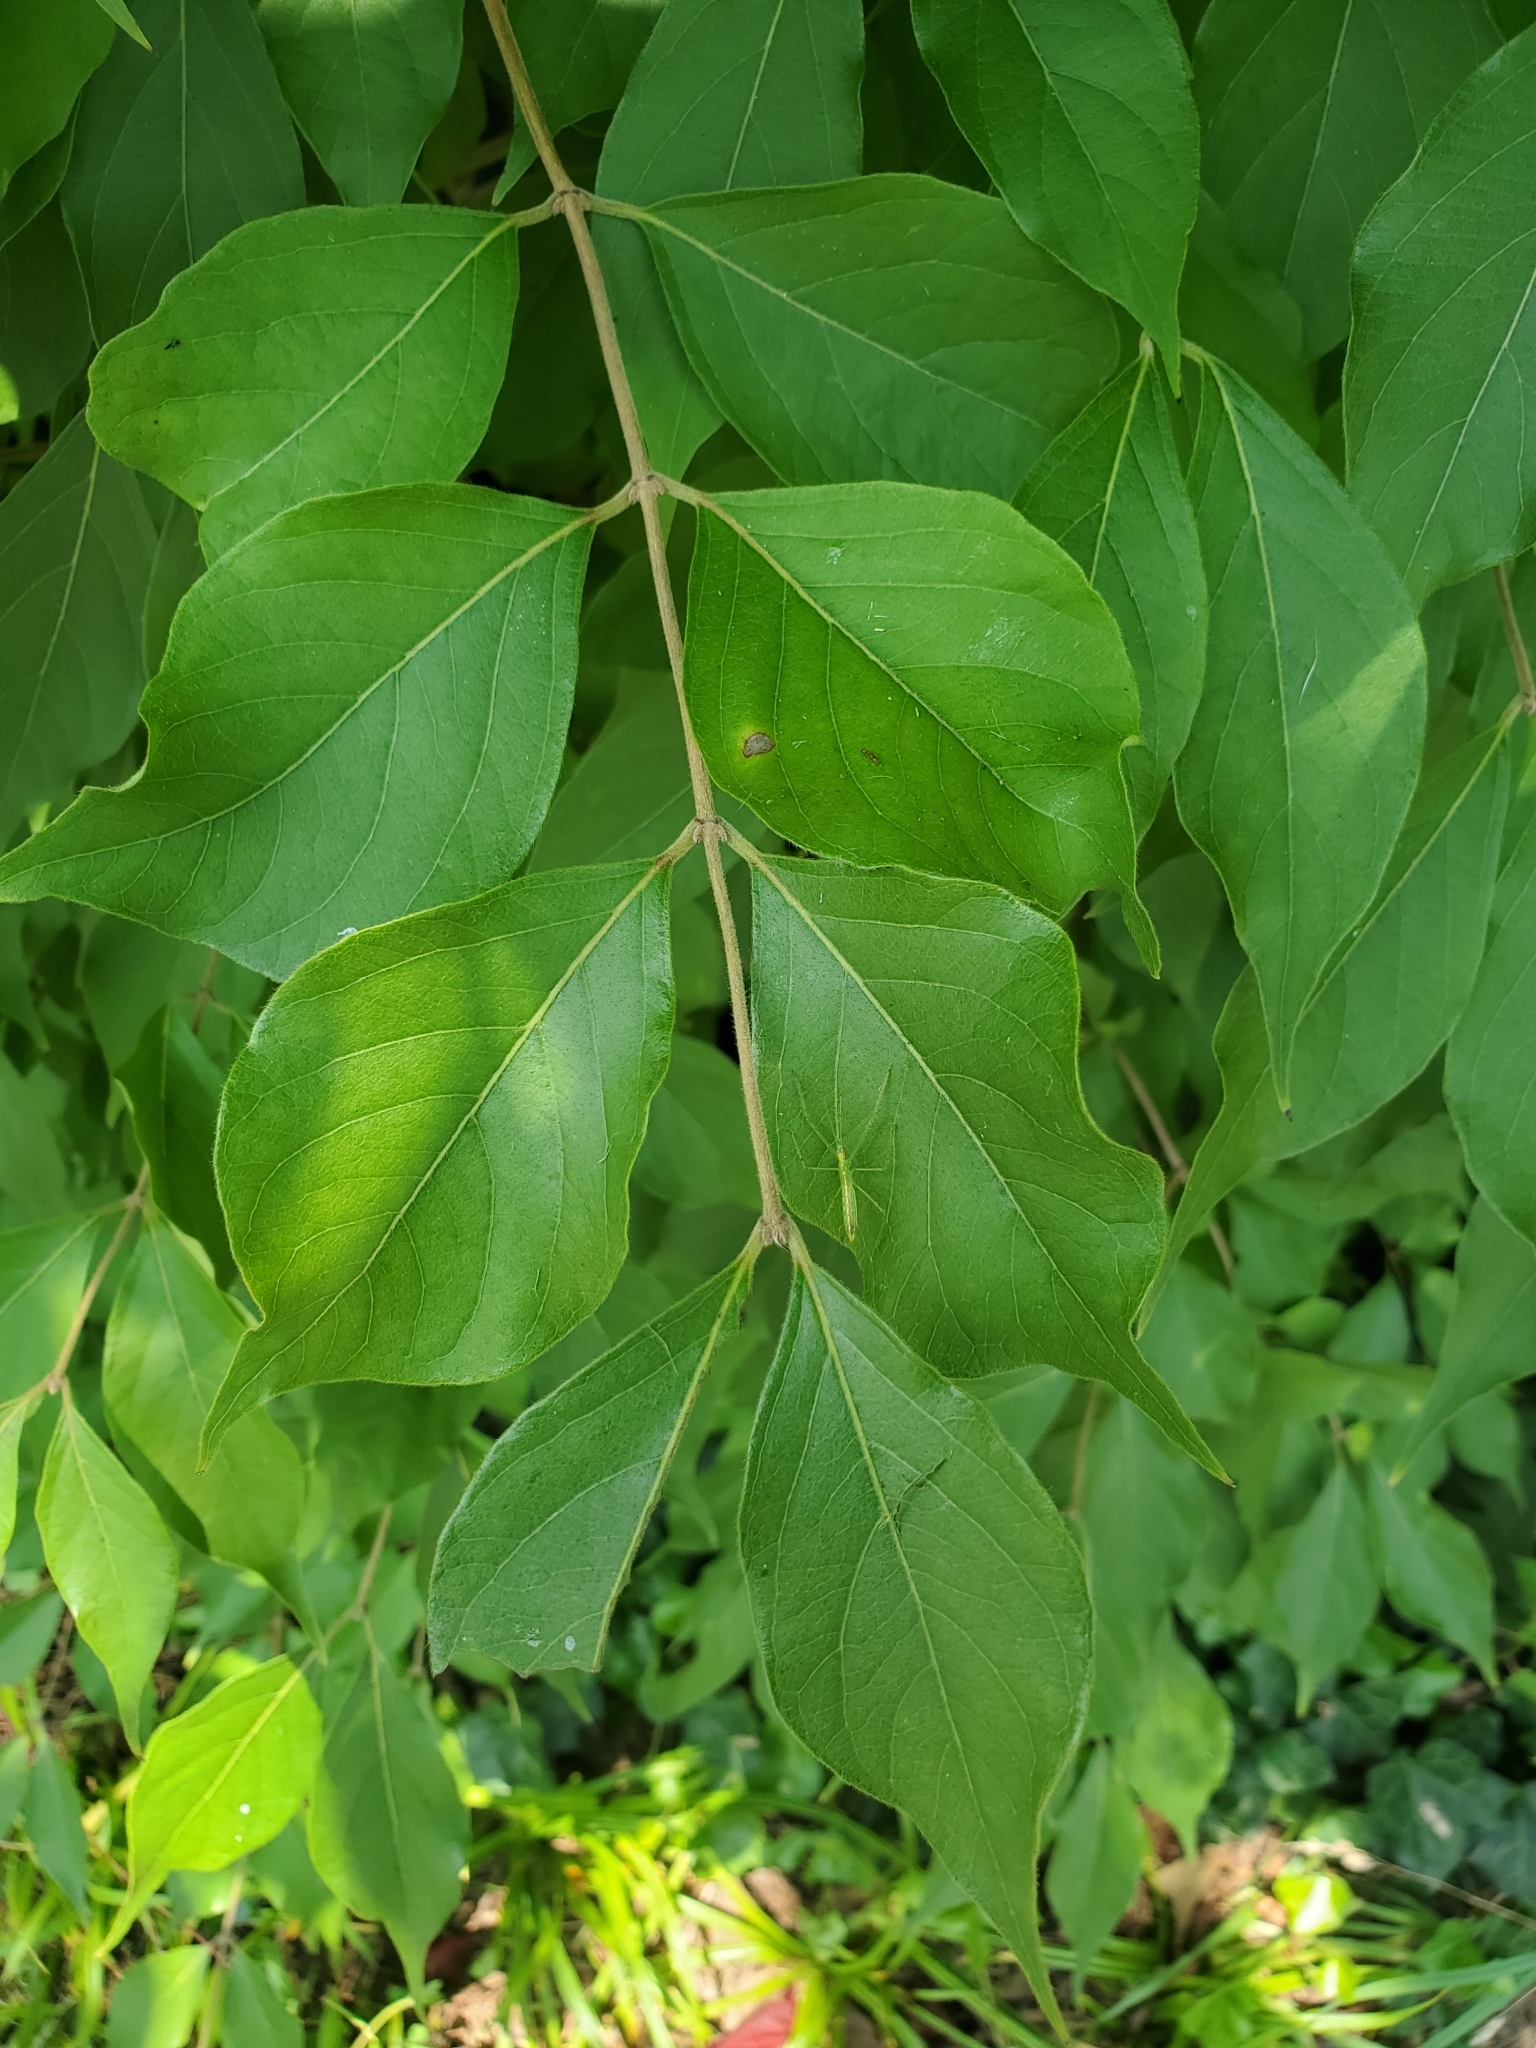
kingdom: Plantae
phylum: Tracheophyta
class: Magnoliopsida
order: Dipsacales
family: Caprifoliaceae
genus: Lonicera
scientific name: Lonicera maackii
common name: Amur honeysuckle
